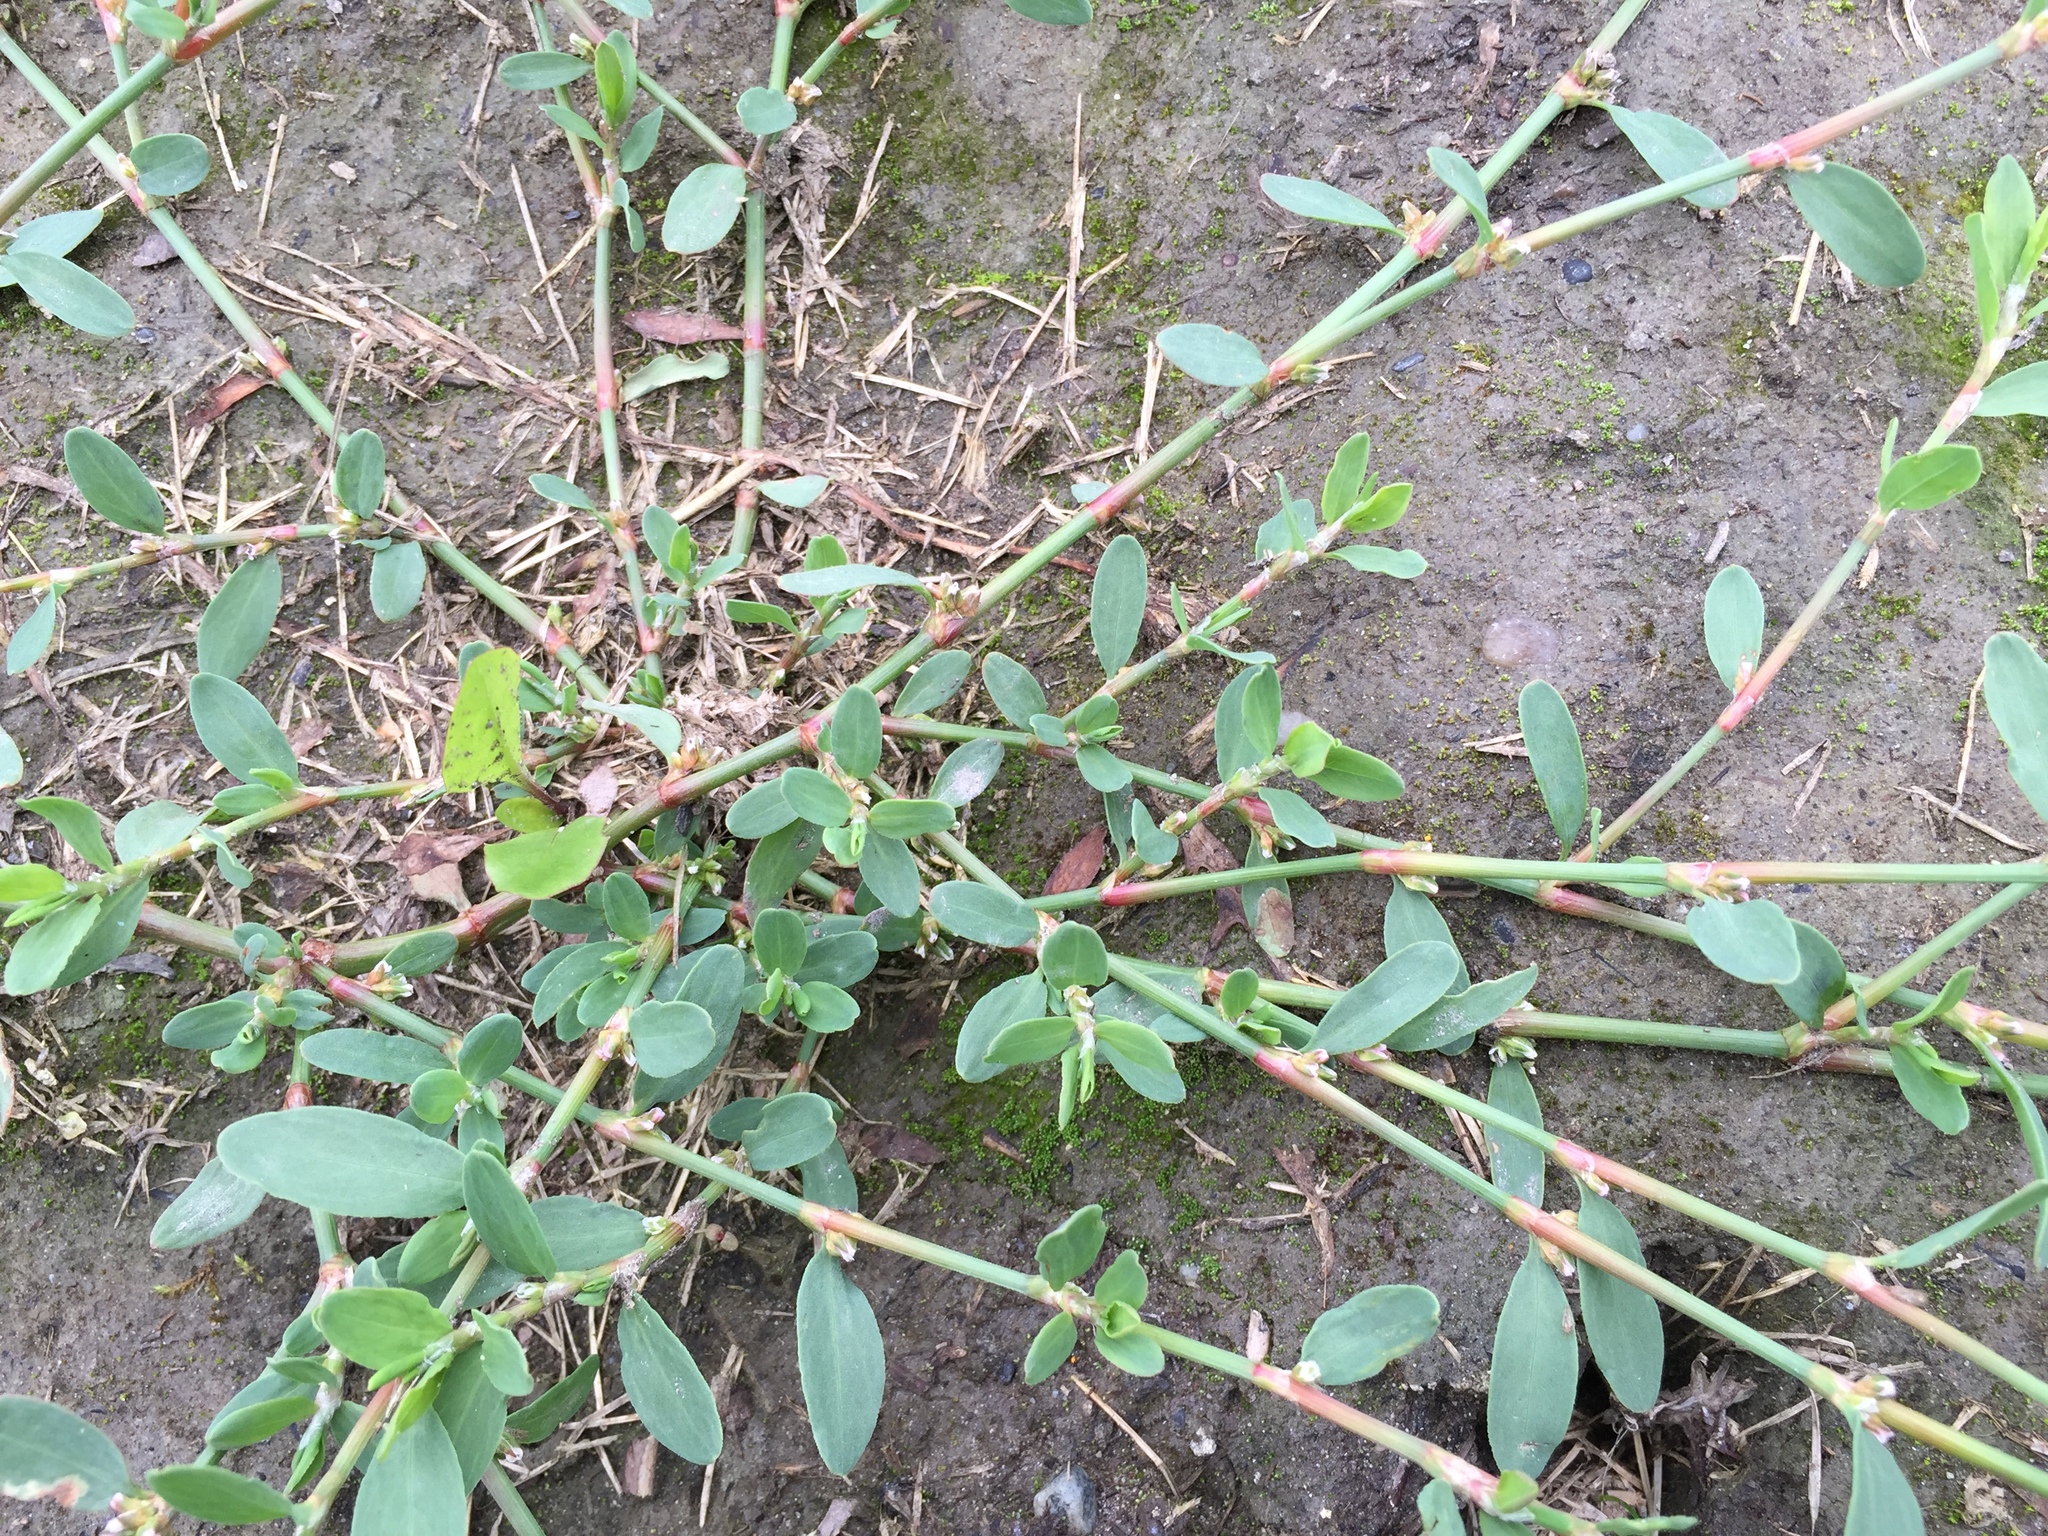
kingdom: Plantae
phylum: Tracheophyta
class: Magnoliopsida
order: Caryophyllales
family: Polygonaceae
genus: Polygonum
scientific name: Polygonum aviculare
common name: Prostrate knotweed
